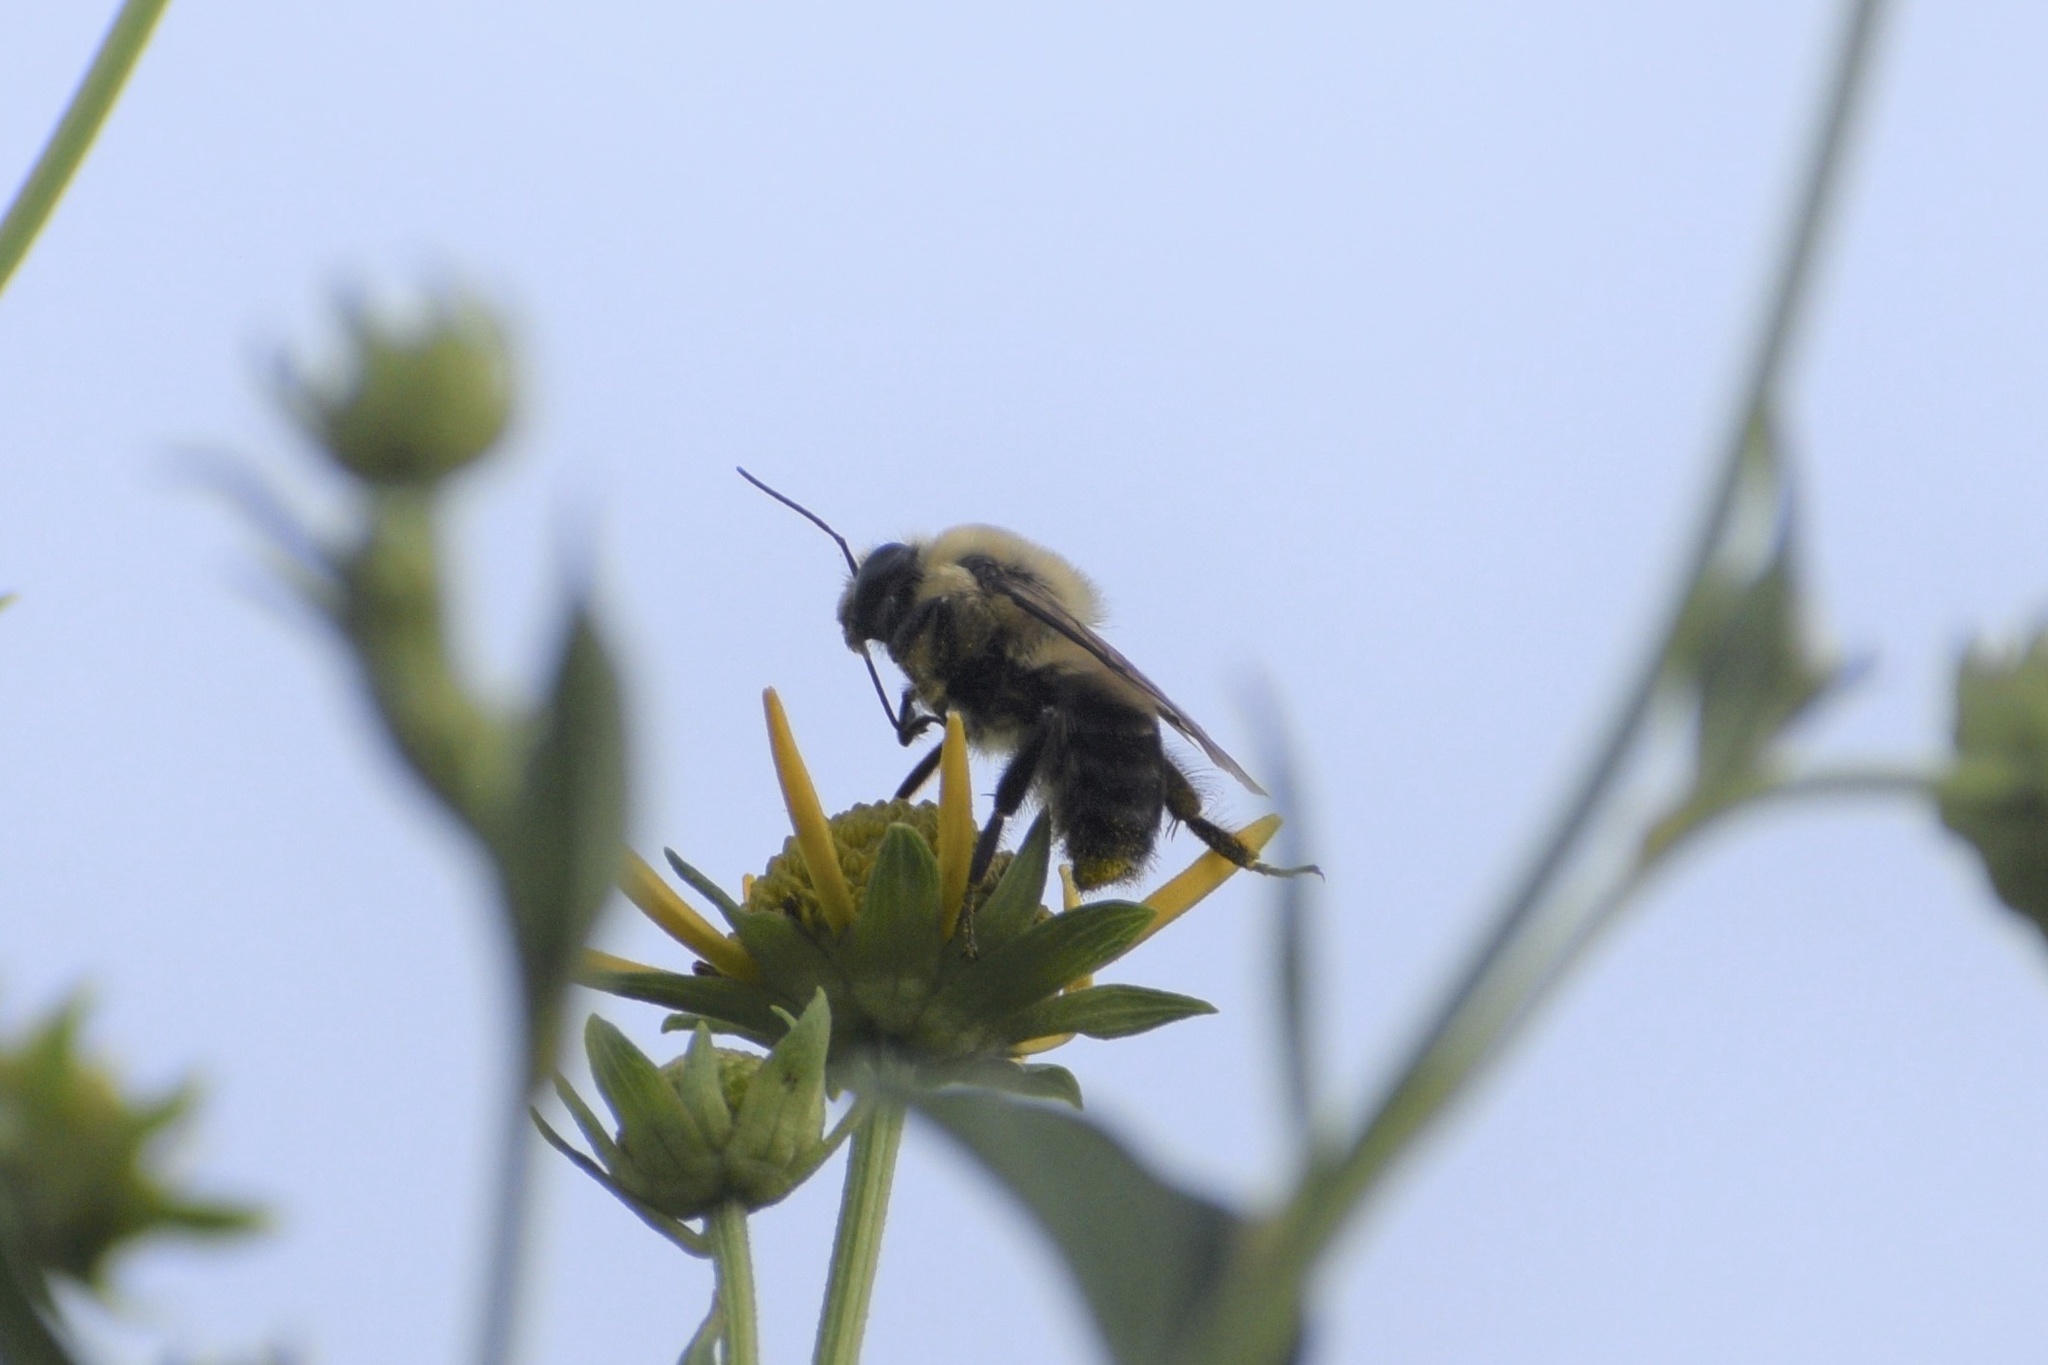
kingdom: Animalia
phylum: Arthropoda
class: Insecta
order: Hymenoptera
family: Apidae
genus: Bombus
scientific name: Bombus griseocollis
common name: Brown-belted bumble bee
